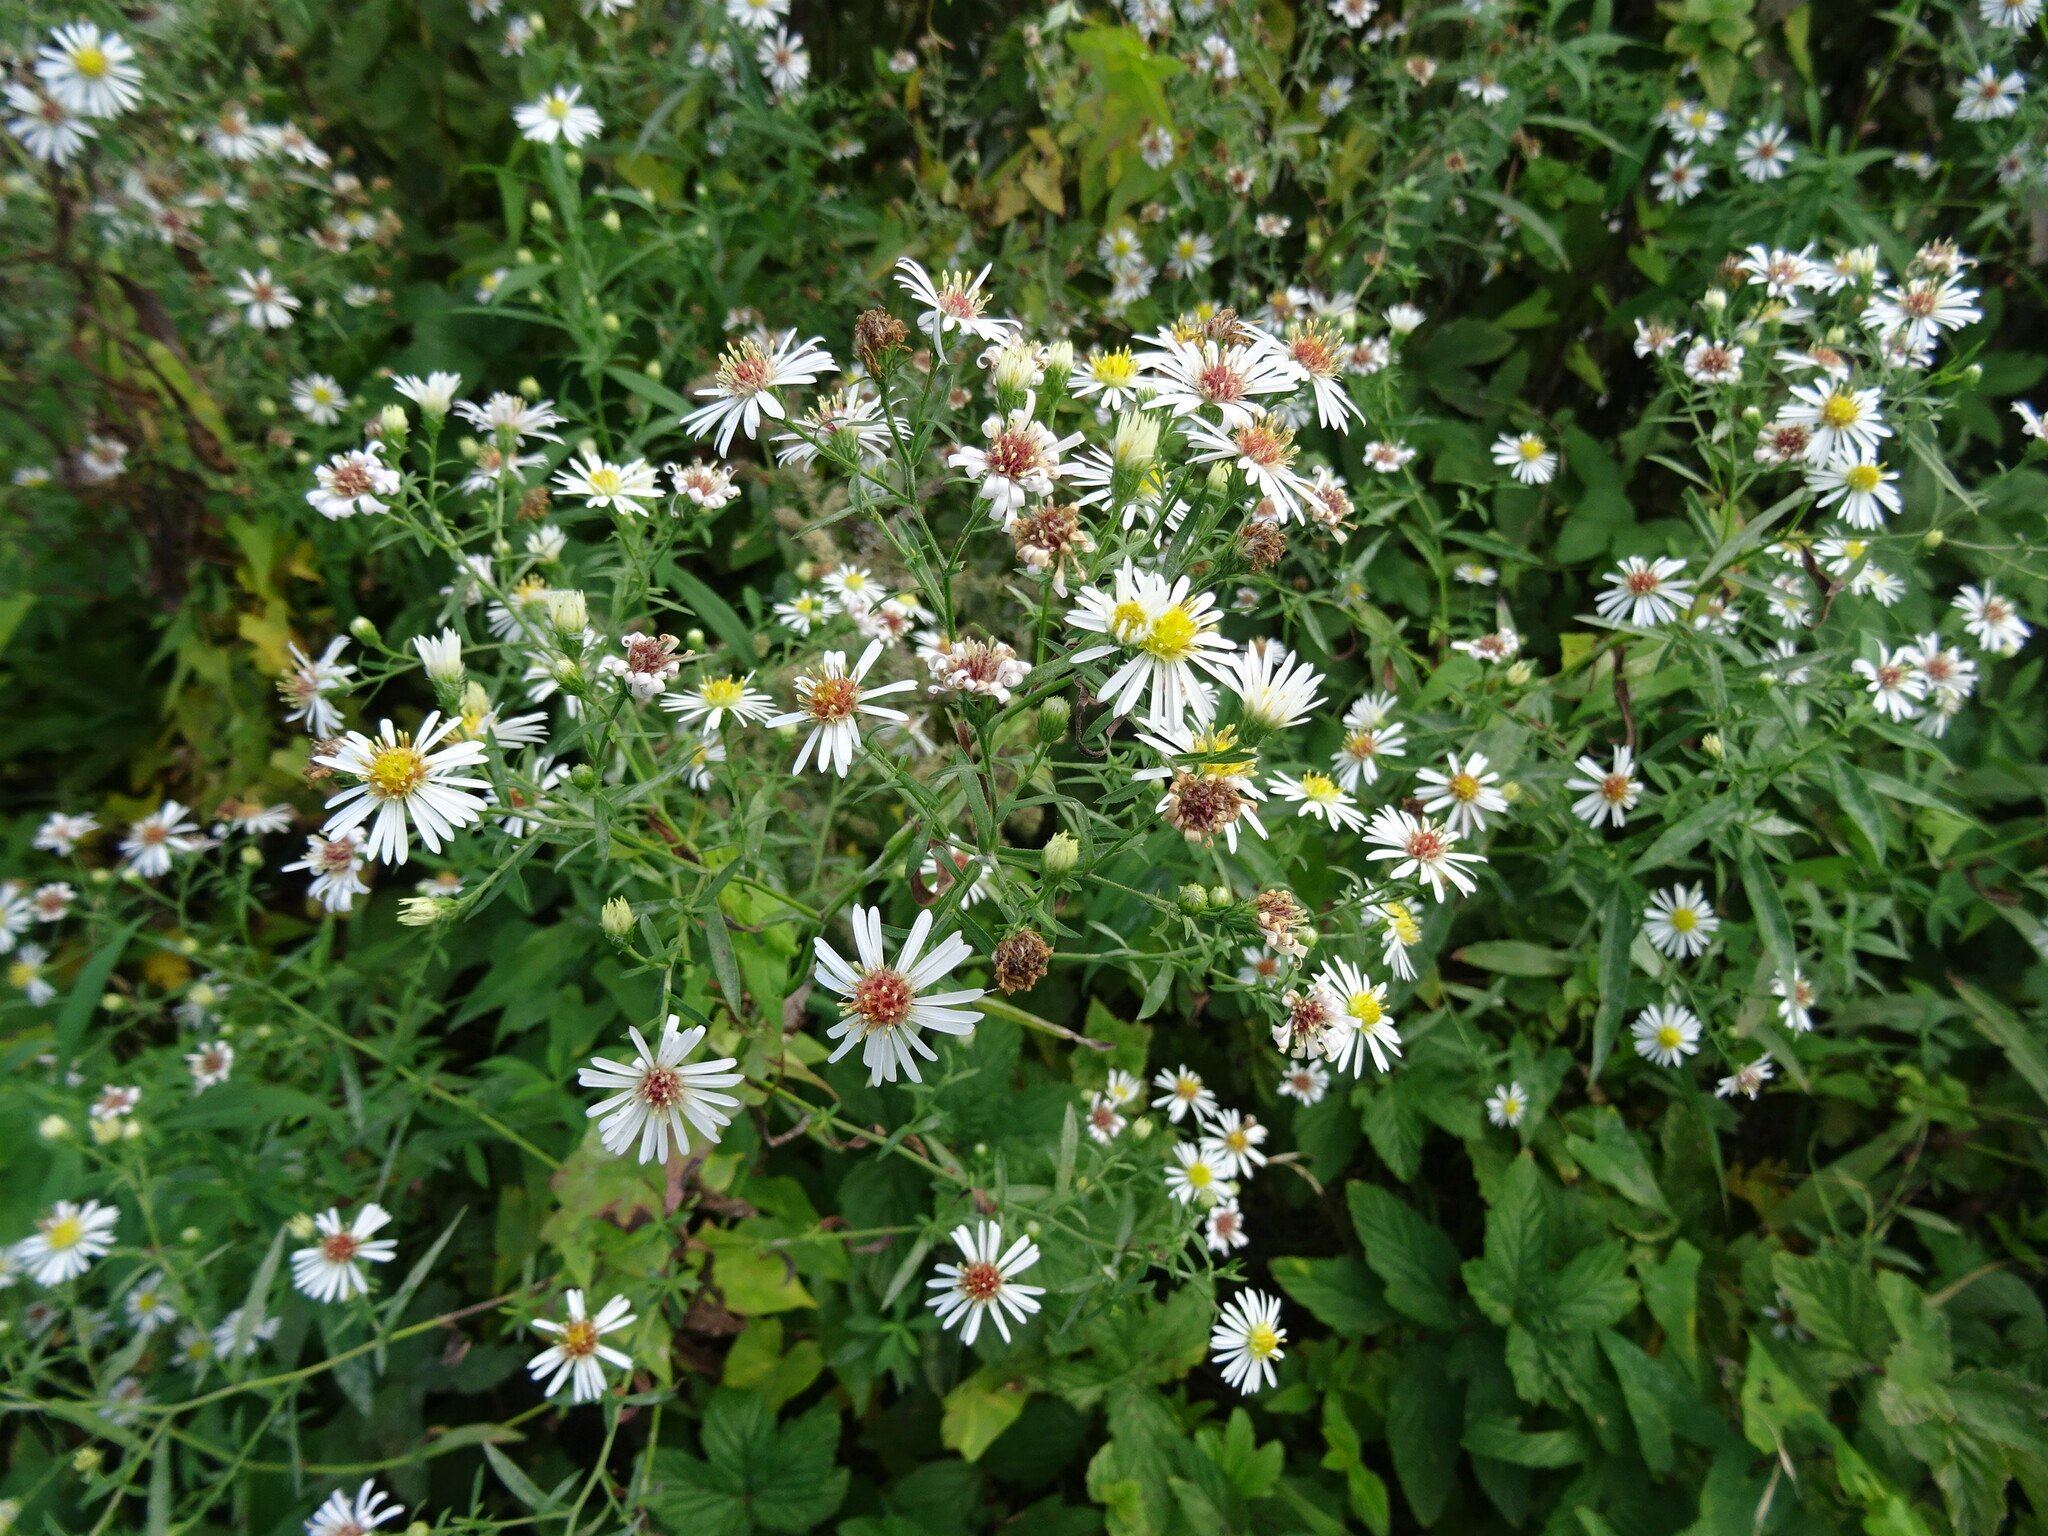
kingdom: Plantae
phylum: Tracheophyta
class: Magnoliopsida
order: Asterales
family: Asteraceae
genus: Symphyotrichum
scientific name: Symphyotrichum lanceolatum
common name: Panicled aster
